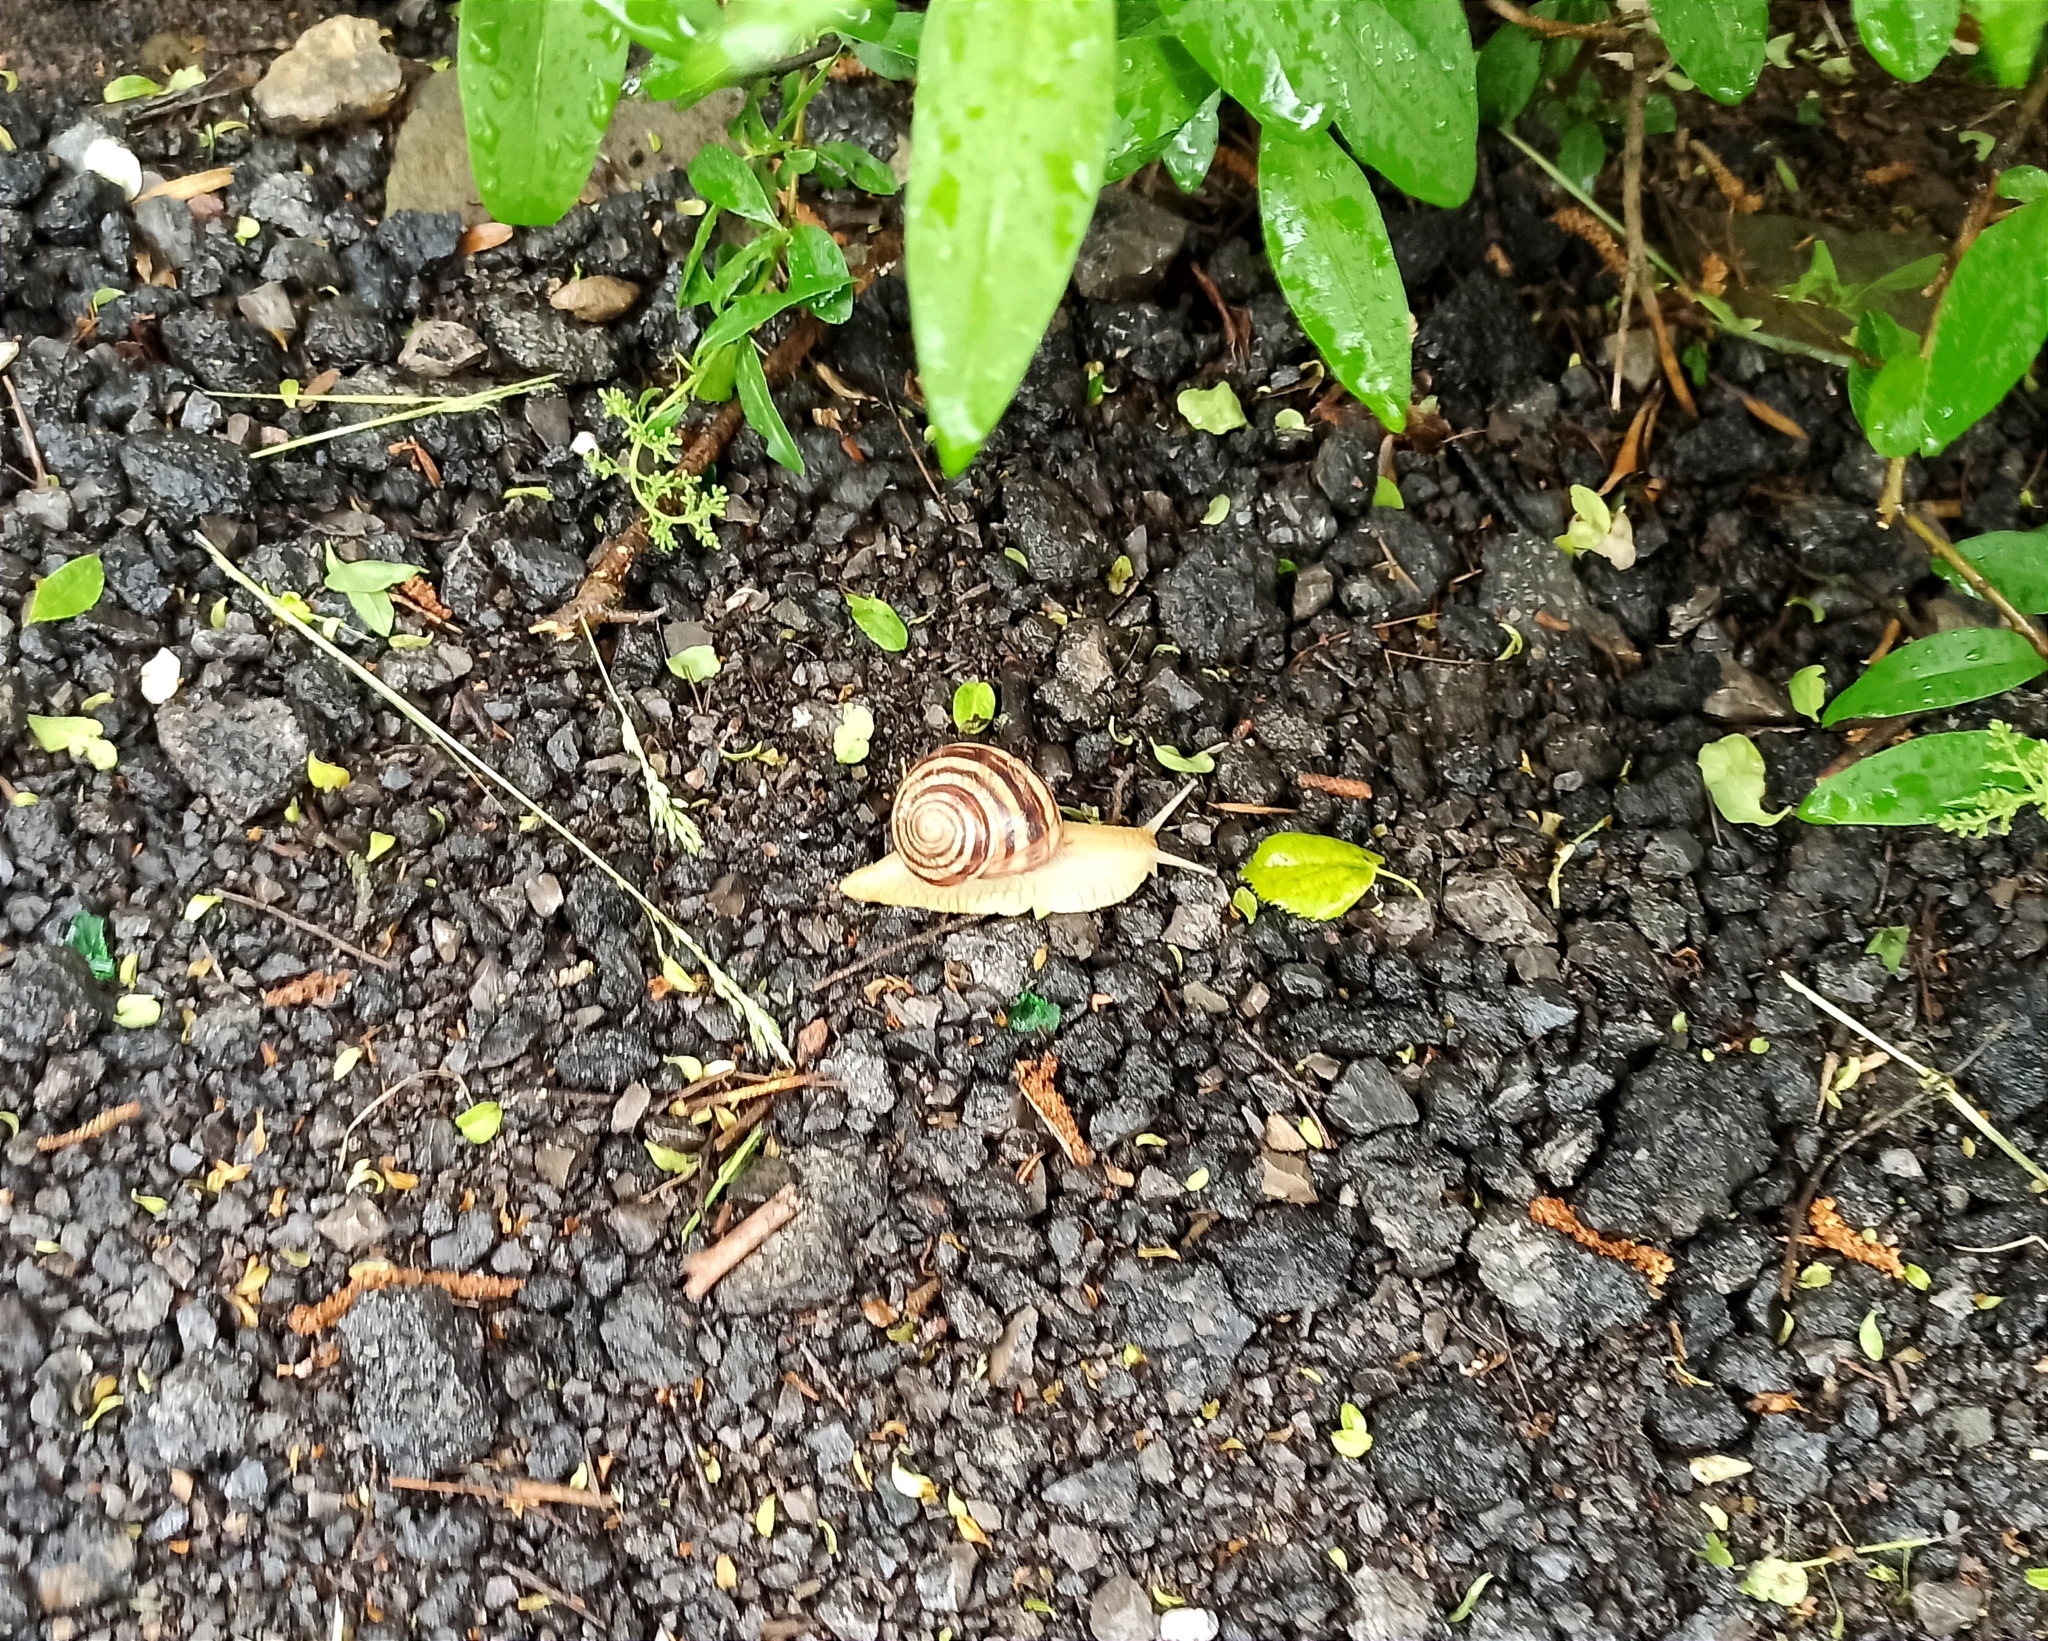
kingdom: Animalia
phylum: Mollusca
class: Gastropoda
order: Stylommatophora
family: Helicidae
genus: Helix
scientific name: Helix albescens
